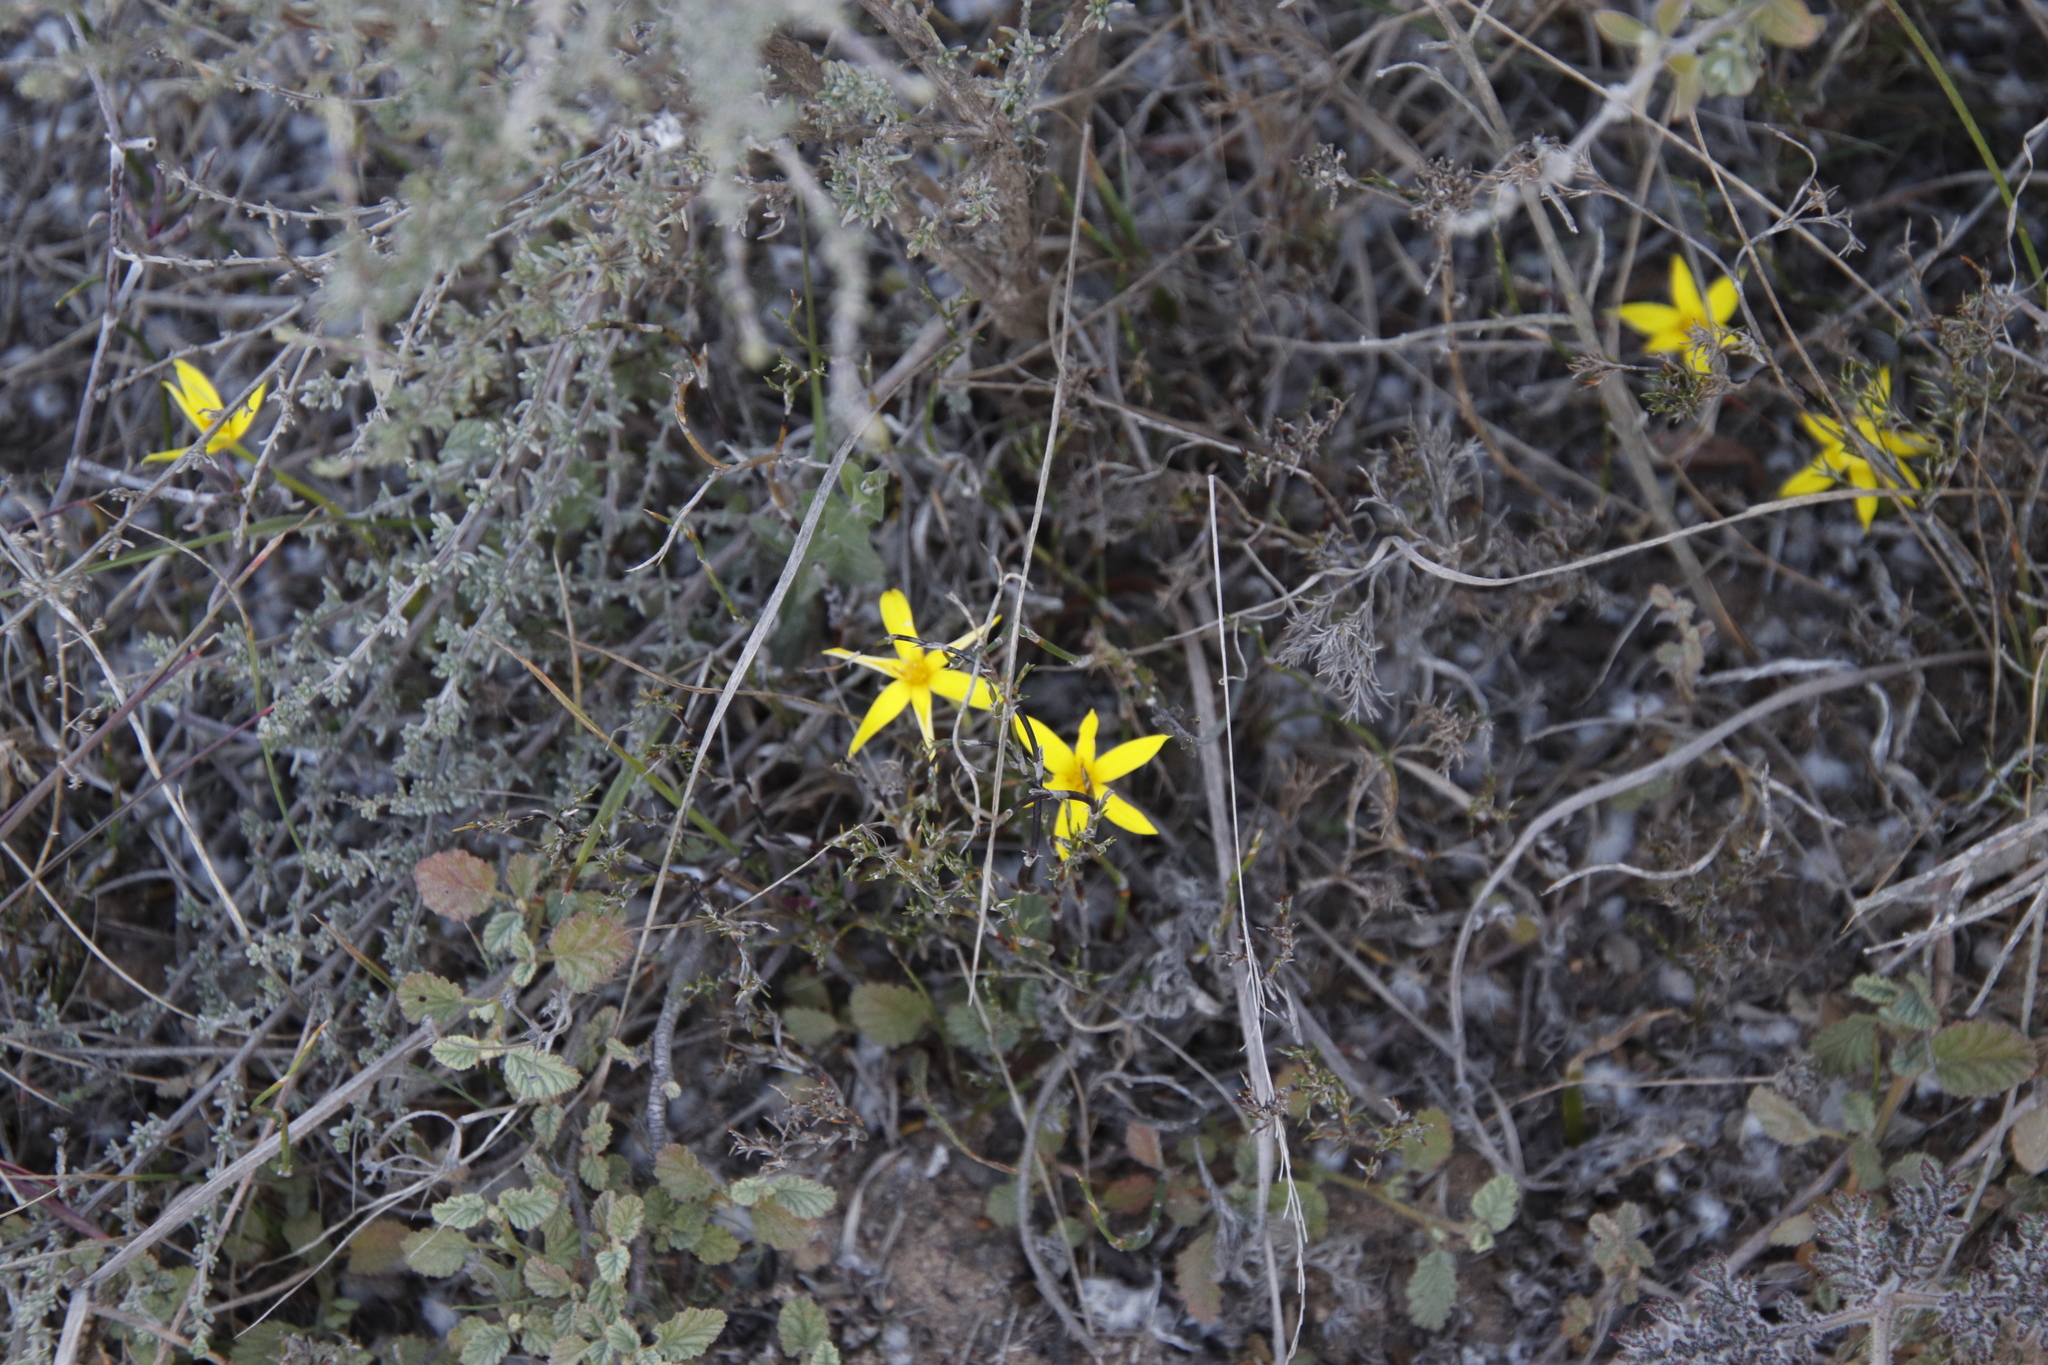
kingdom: Plantae
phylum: Tracheophyta
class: Liliopsida
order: Asparagales
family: Hypoxidaceae
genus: Empodium
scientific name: Empodium plicatum
